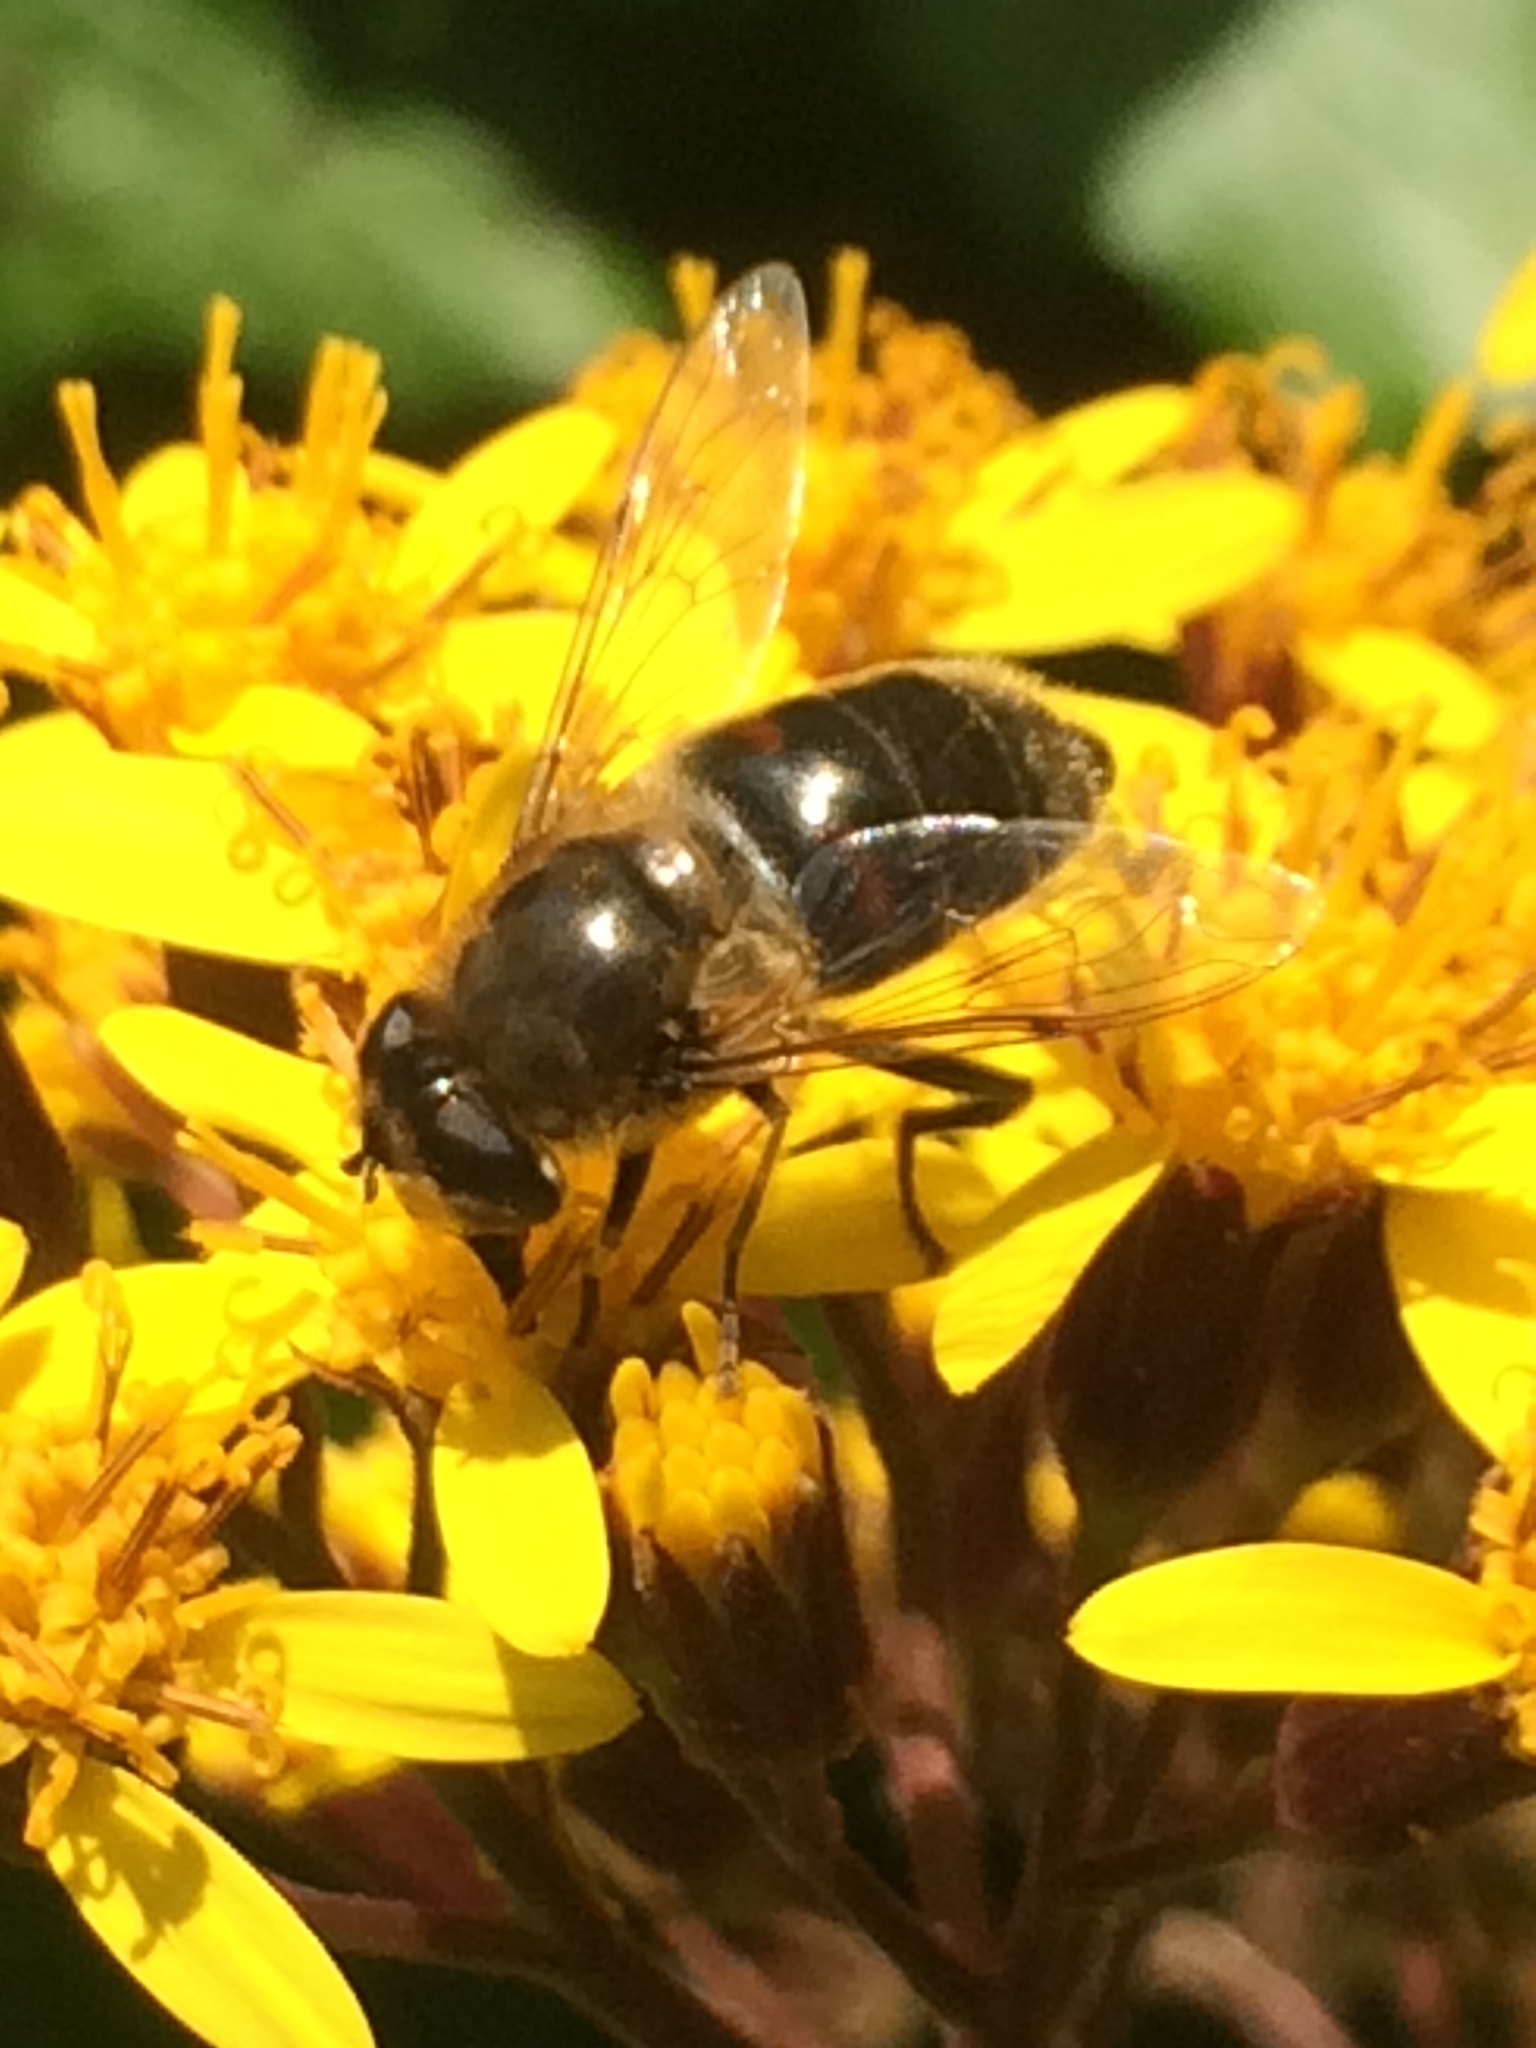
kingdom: Animalia
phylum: Arthropoda
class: Insecta
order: Diptera
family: Syrphidae
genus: Eristalis
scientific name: Eristalis tenax
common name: Drone fly
